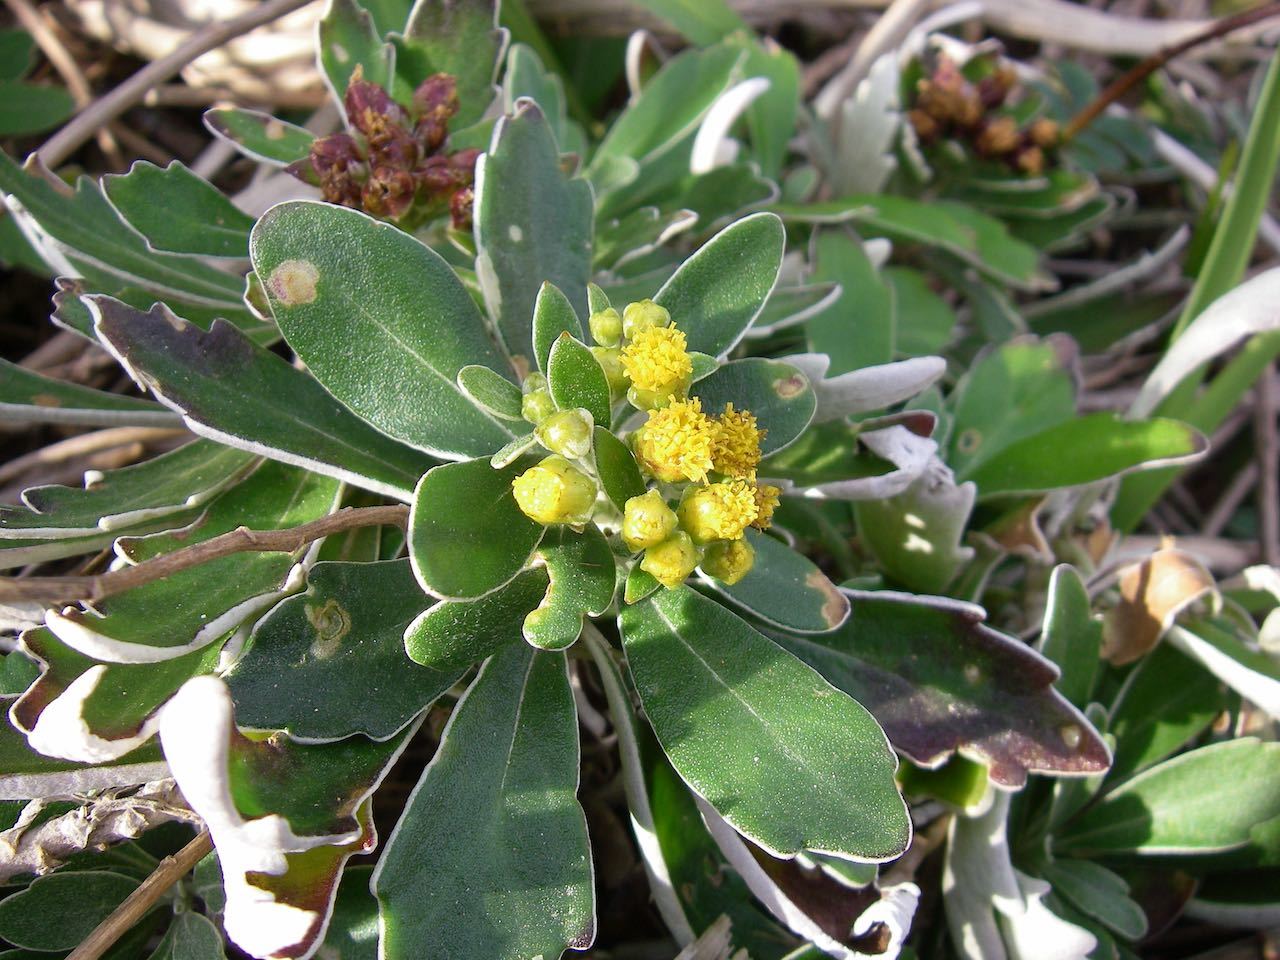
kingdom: Plantae
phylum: Tracheophyta
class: Magnoliopsida
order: Asterales
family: Asteraceae
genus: Ajania
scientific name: Ajania pacifica
